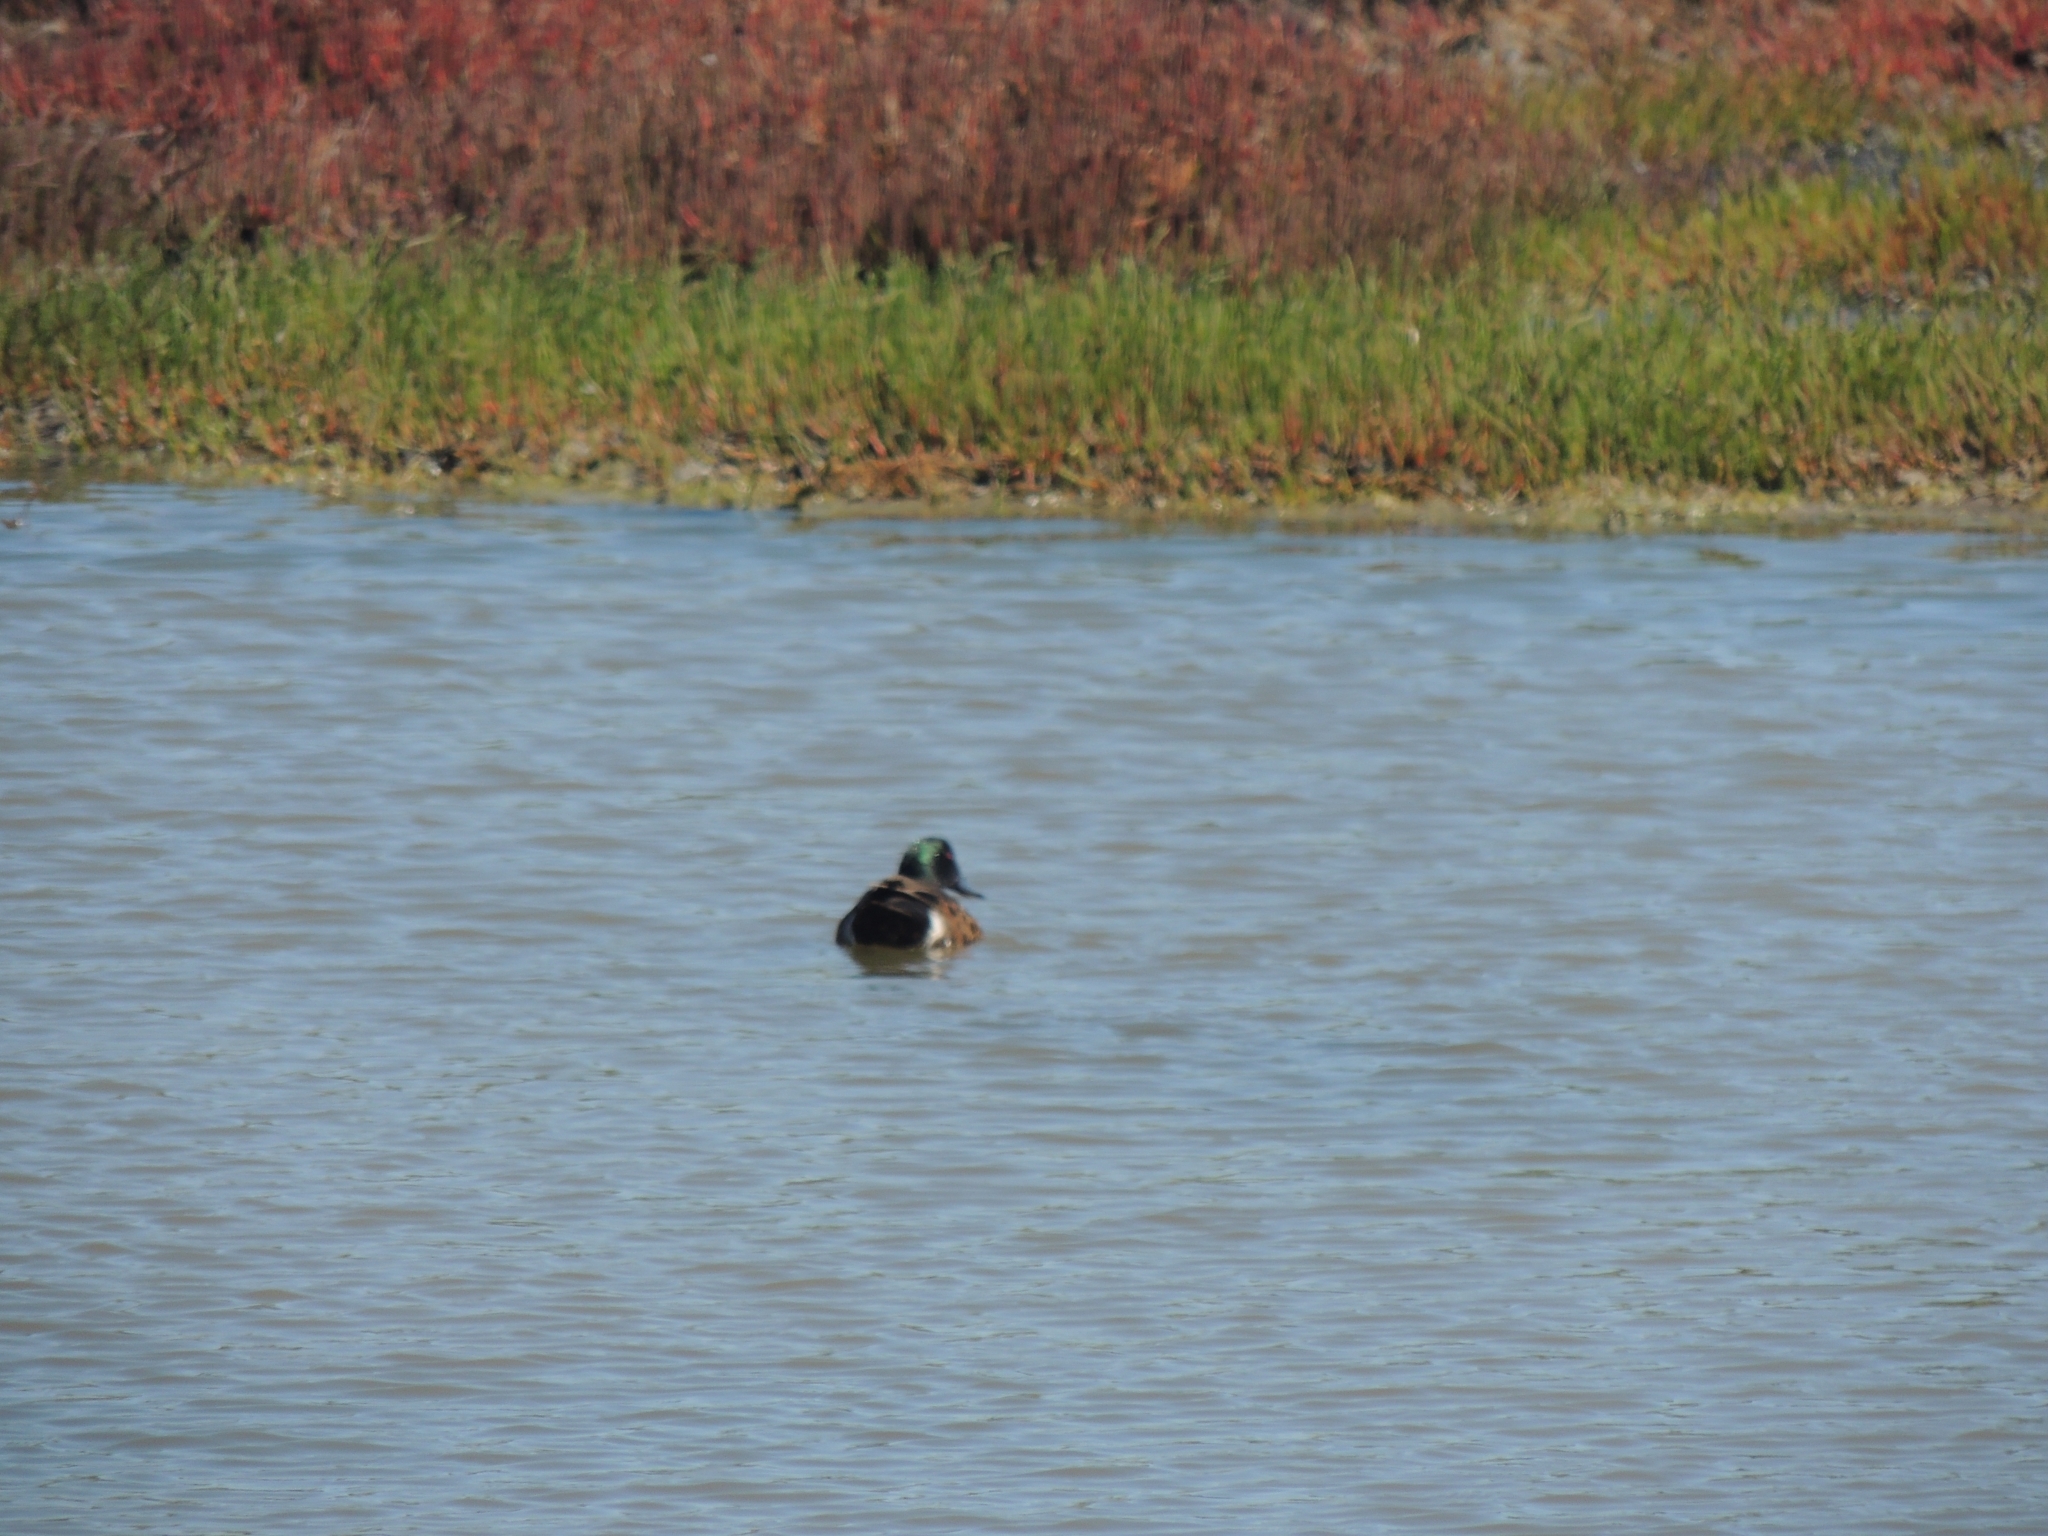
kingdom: Animalia
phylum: Chordata
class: Aves
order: Anseriformes
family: Anatidae
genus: Anas
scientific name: Anas castanea
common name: Chestnut teal
